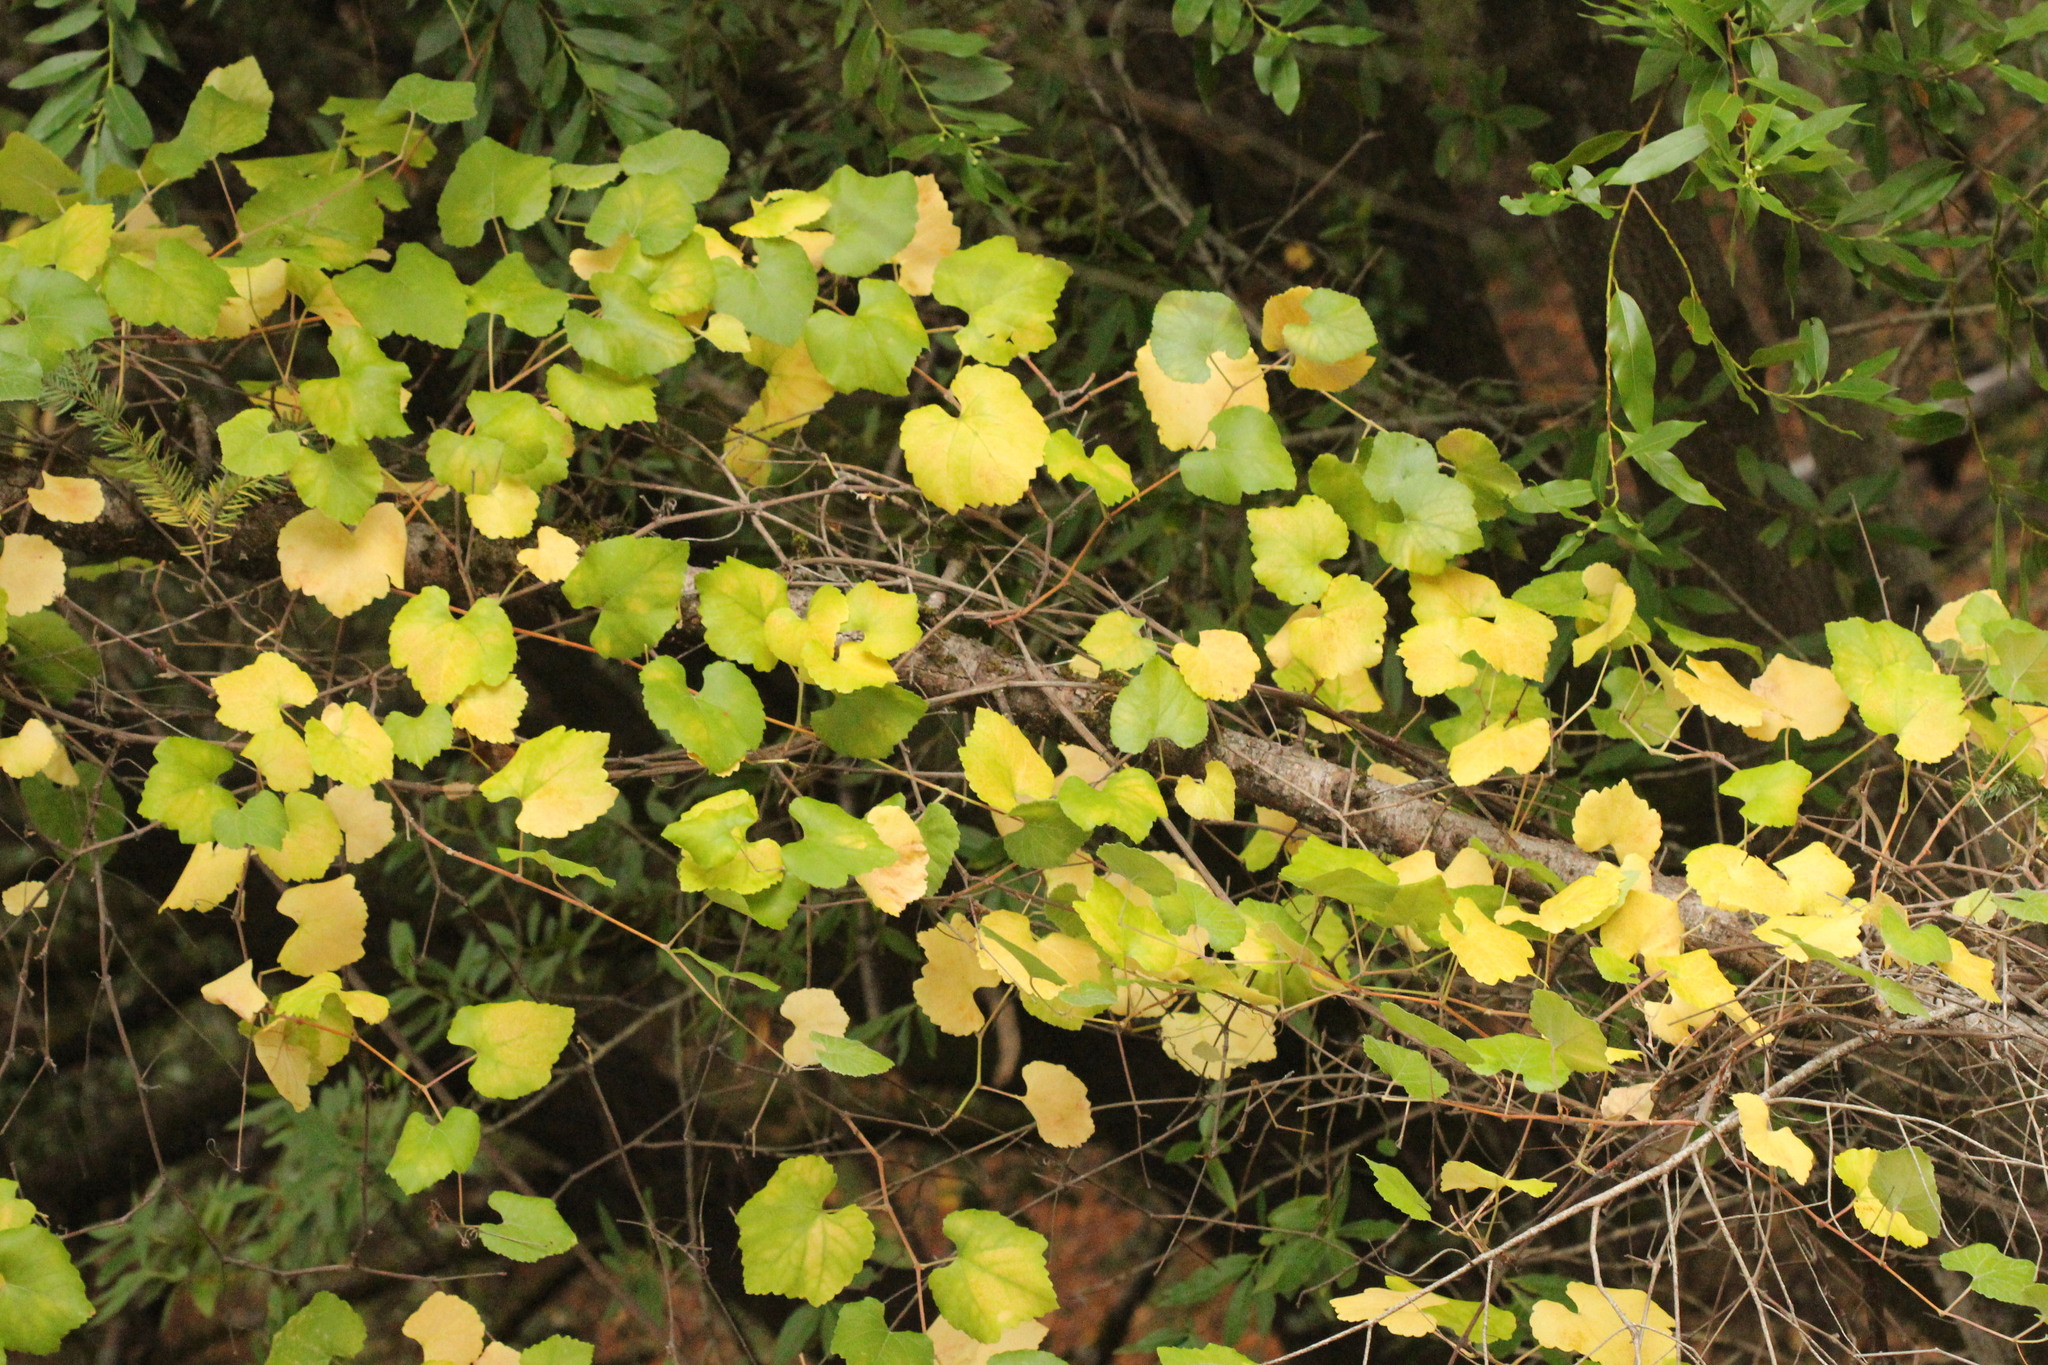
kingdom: Plantae
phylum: Tracheophyta
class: Magnoliopsida
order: Vitales
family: Vitaceae
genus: Vitis
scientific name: Vitis californica
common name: California wild grape
